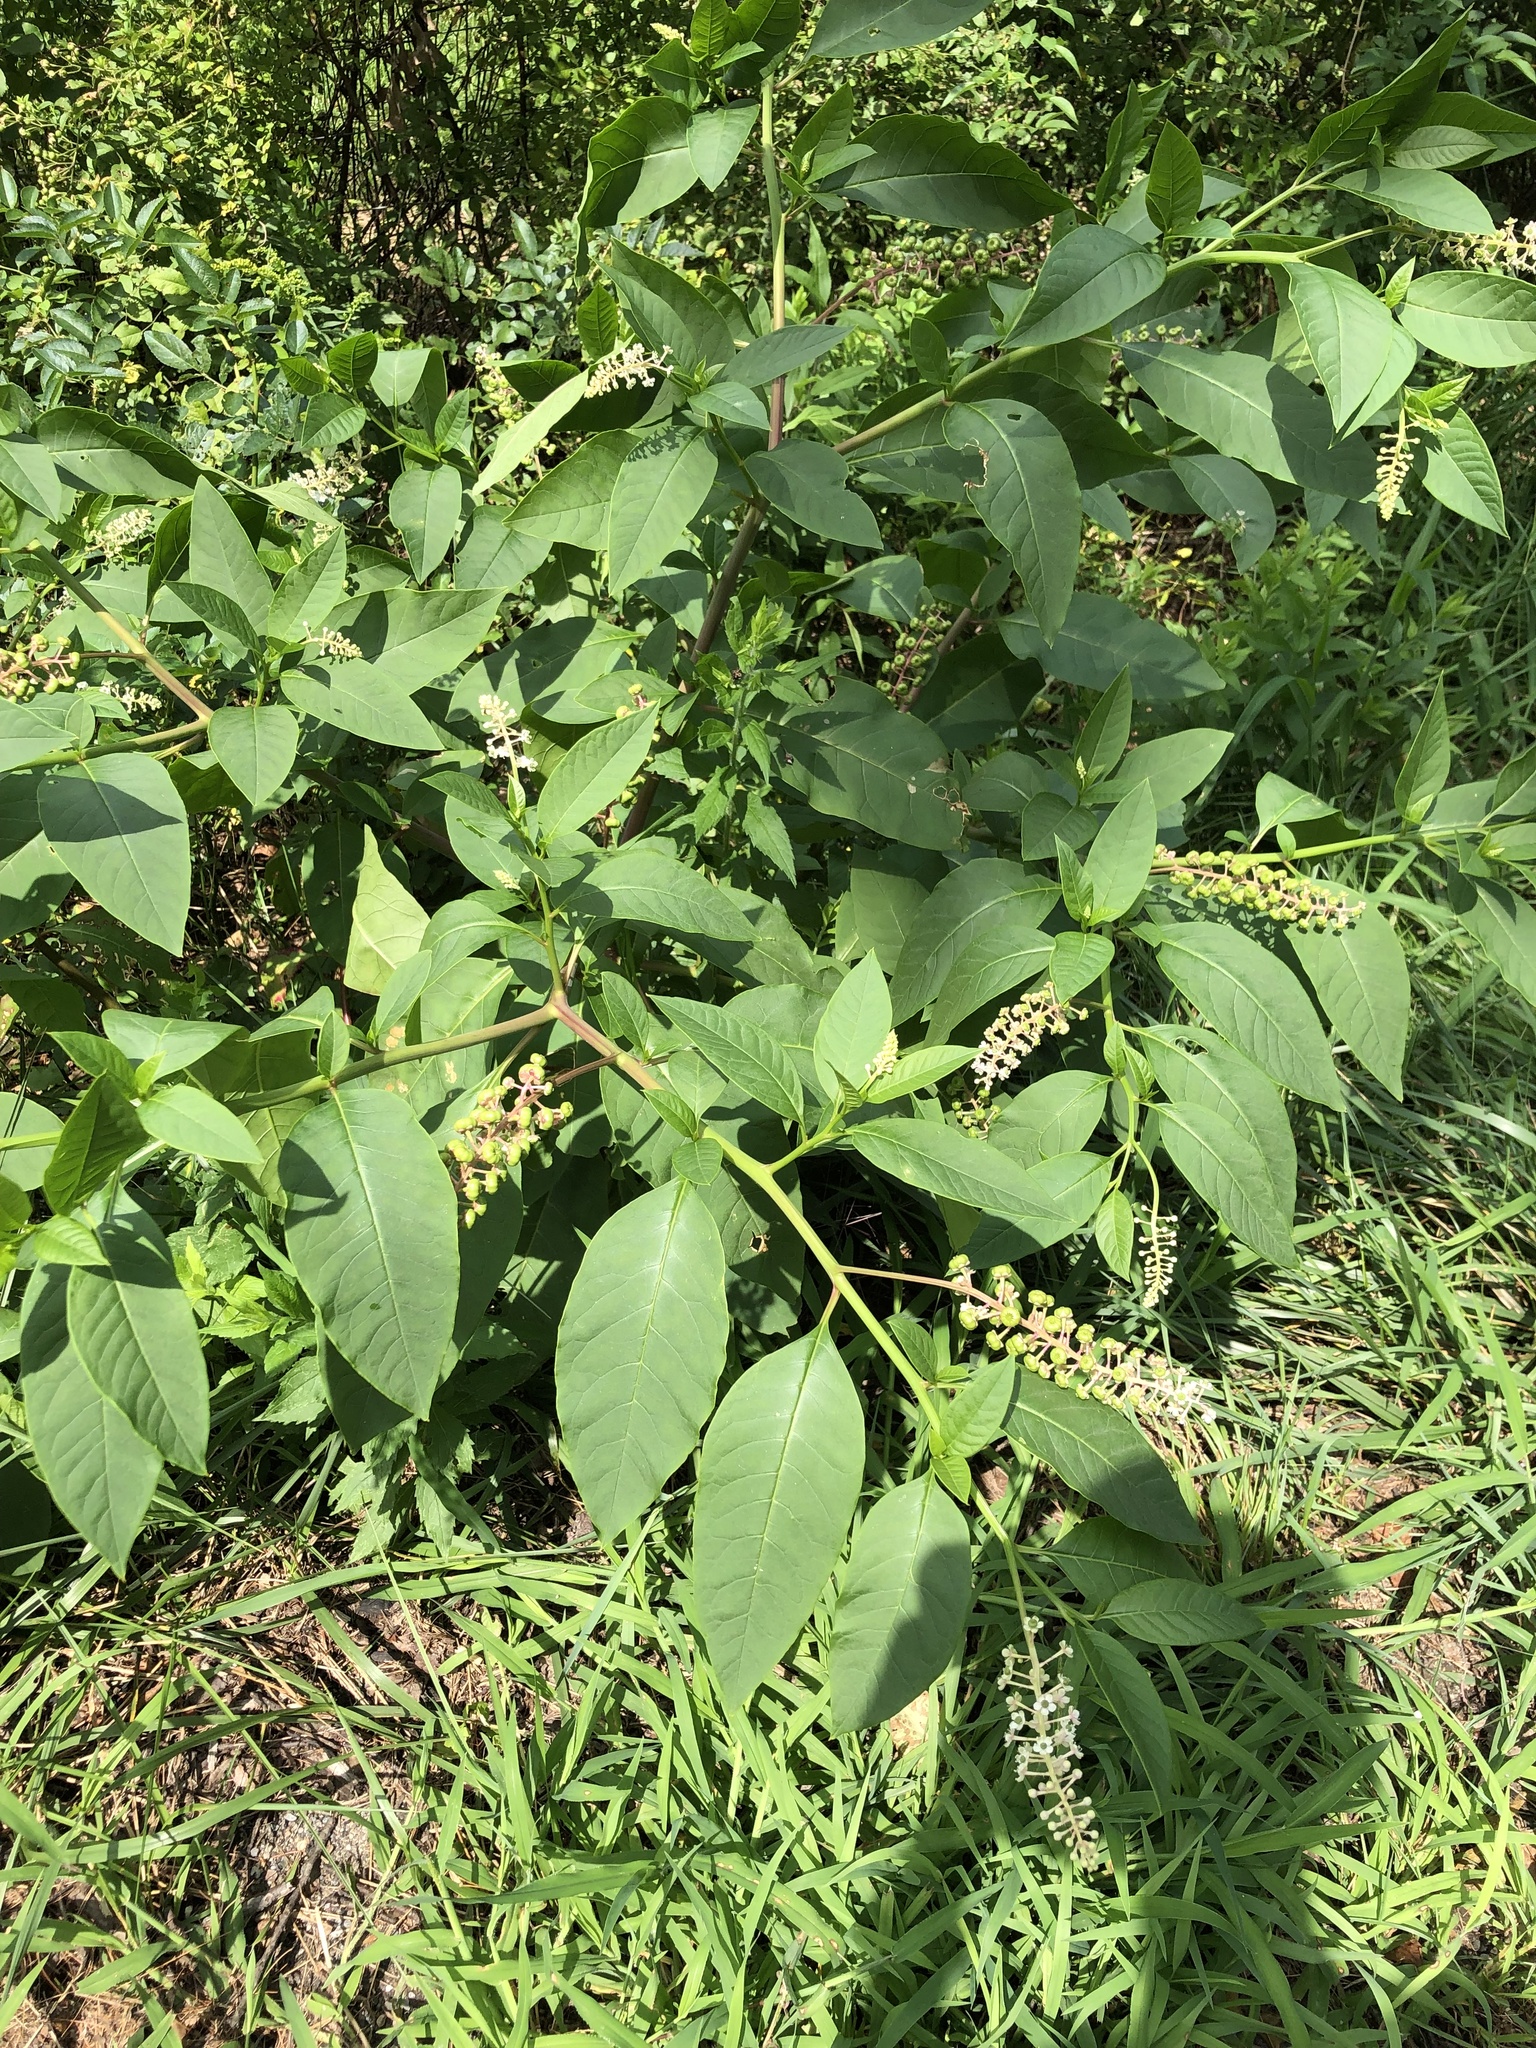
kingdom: Plantae
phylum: Tracheophyta
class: Magnoliopsida
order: Caryophyllales
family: Phytolaccaceae
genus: Phytolacca
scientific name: Phytolacca americana
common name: American pokeweed
